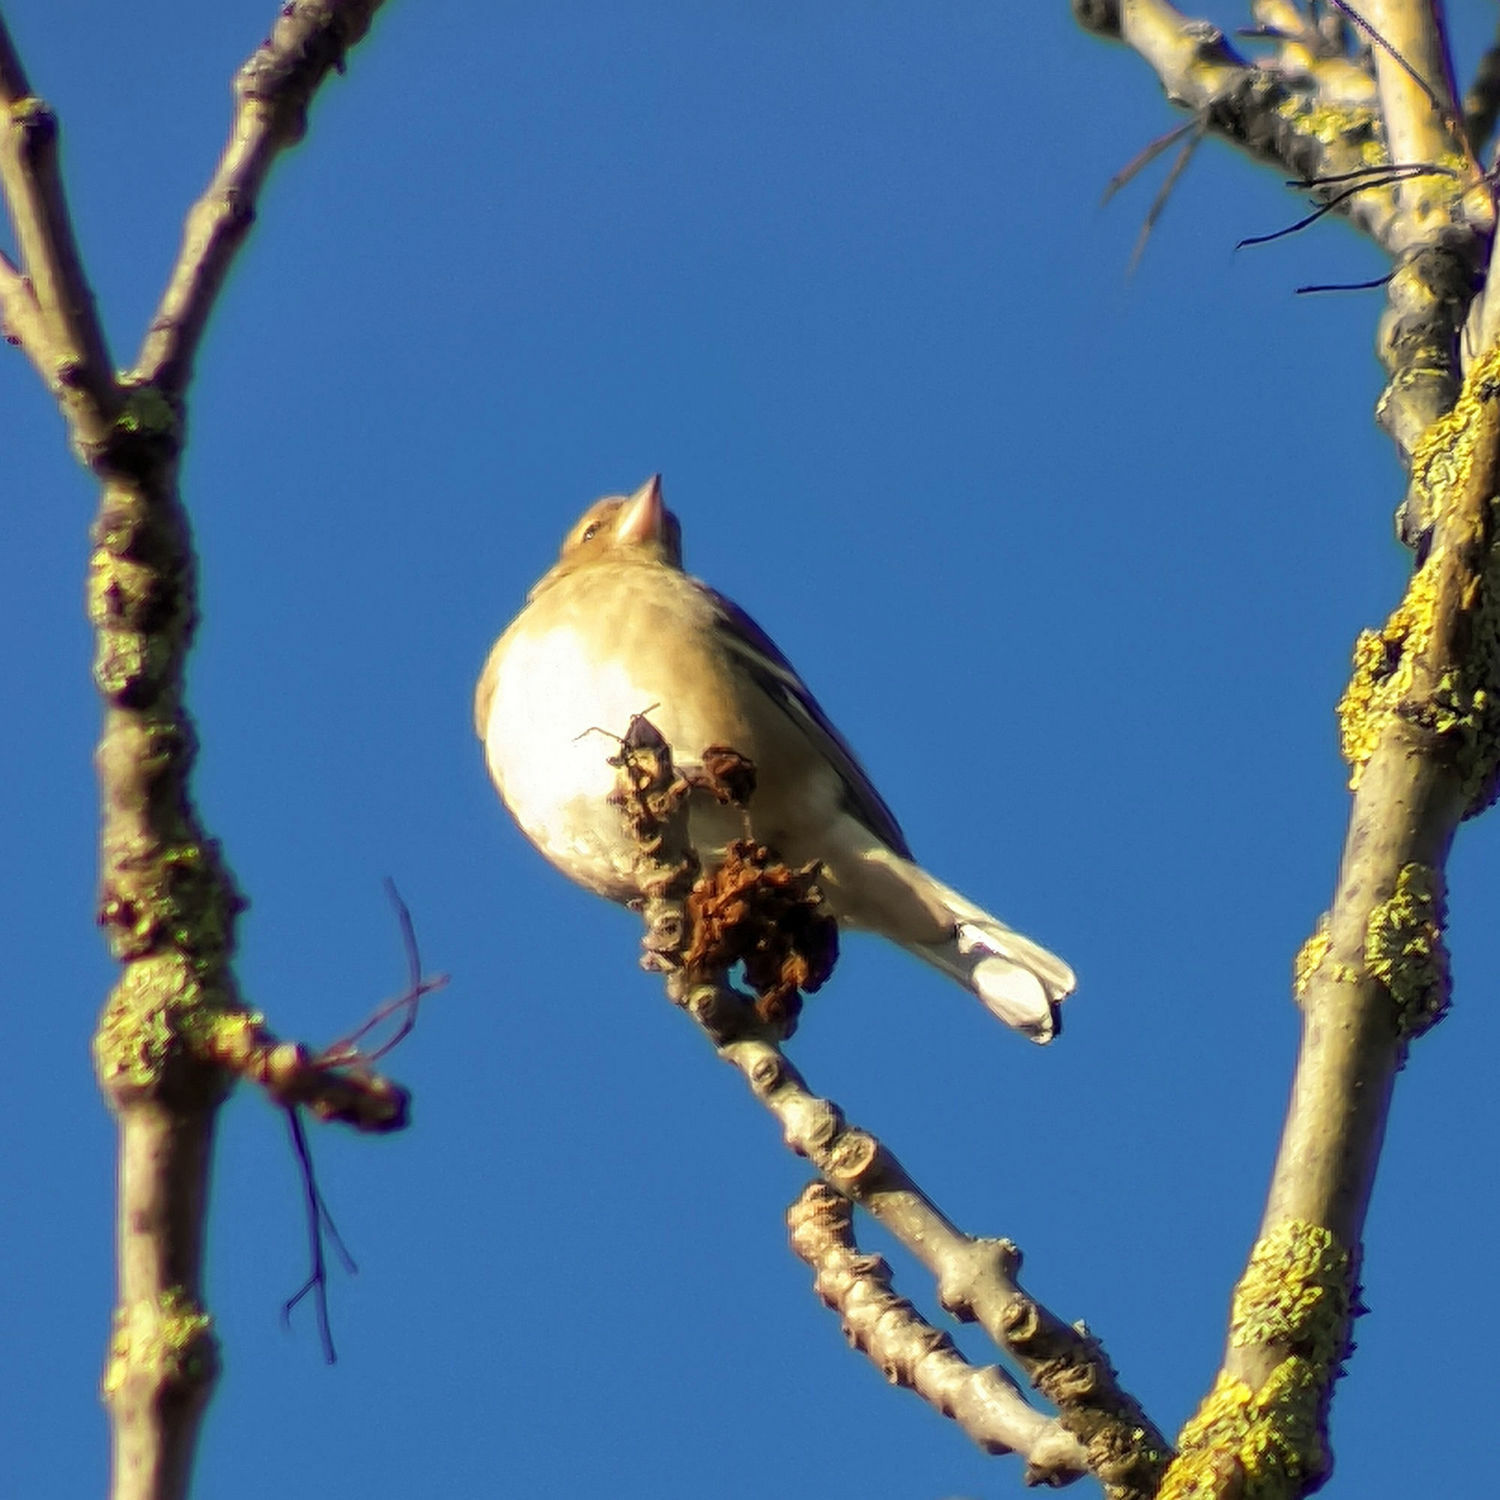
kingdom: Animalia
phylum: Chordata
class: Aves
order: Passeriformes
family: Fringillidae
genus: Fringilla
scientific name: Fringilla coelebs
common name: Common chaffinch
